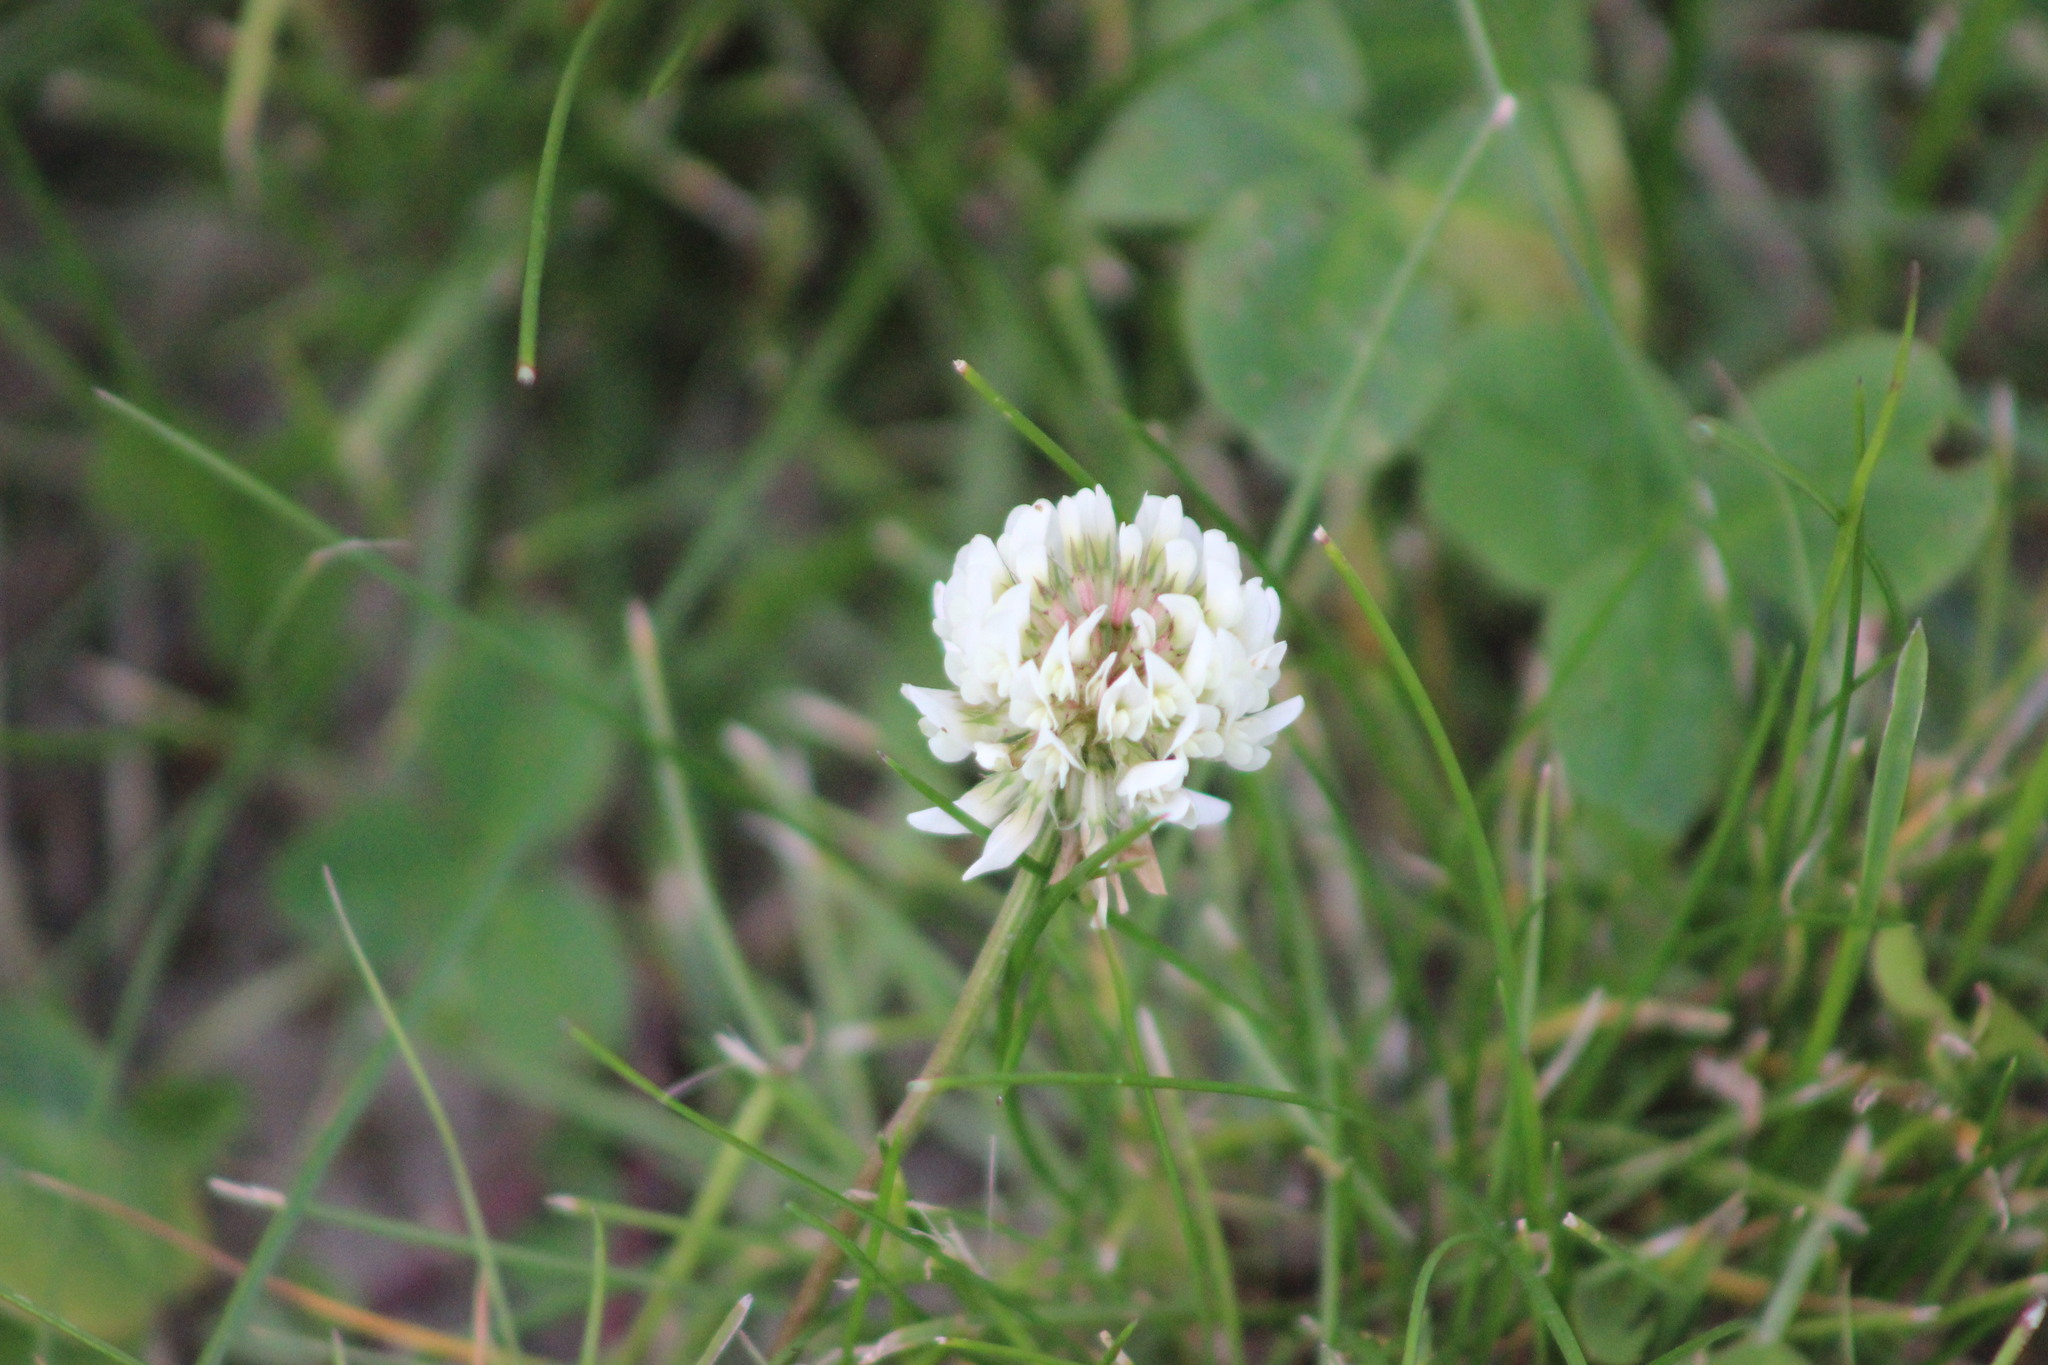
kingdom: Plantae
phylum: Tracheophyta
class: Magnoliopsida
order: Fabales
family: Fabaceae
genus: Trifolium
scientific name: Trifolium repens
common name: White clover
